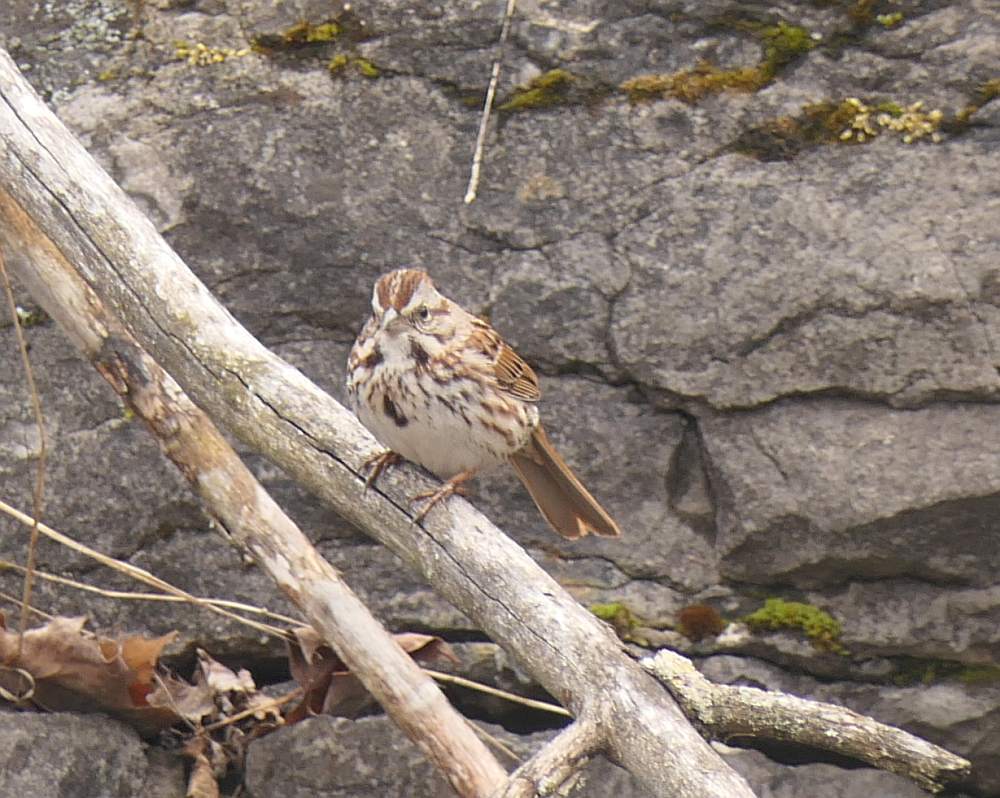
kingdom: Animalia
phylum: Chordata
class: Aves
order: Passeriformes
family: Passerellidae
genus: Melospiza
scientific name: Melospiza melodia
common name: Song sparrow
